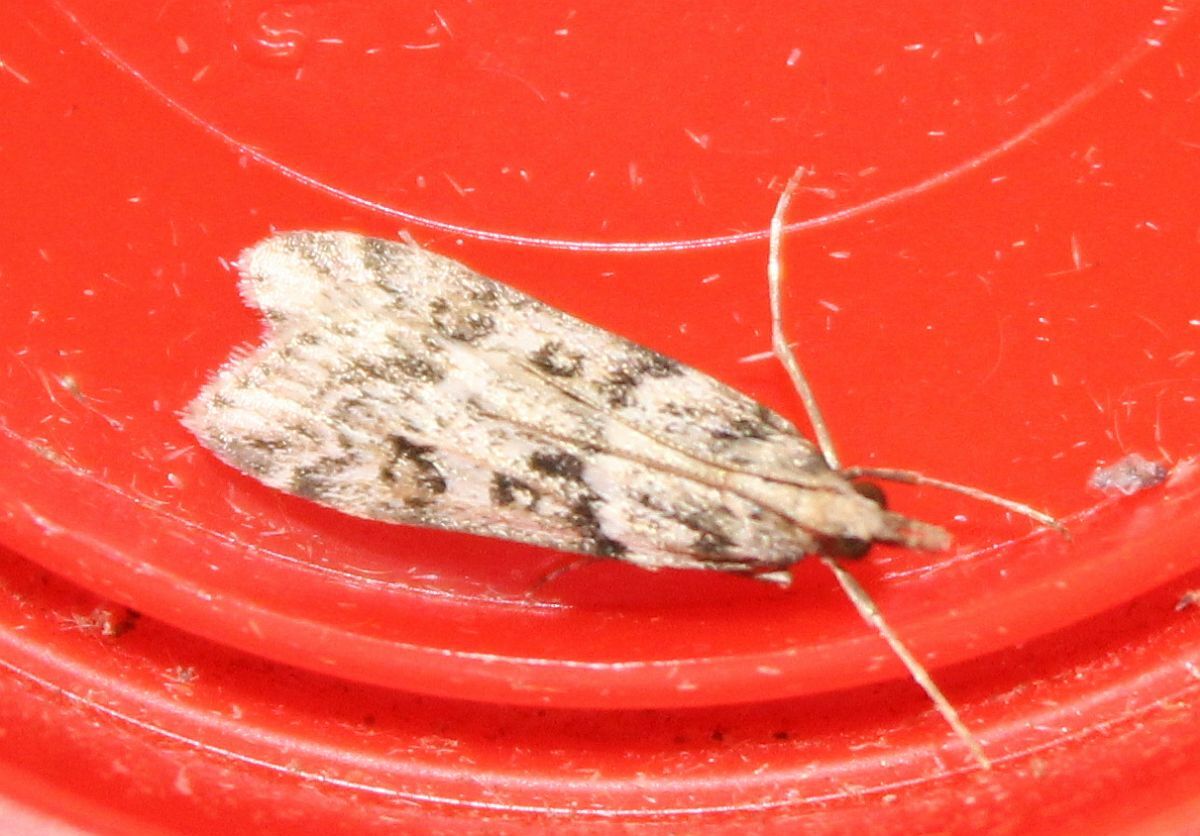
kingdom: Animalia
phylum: Arthropoda
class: Insecta
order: Lepidoptera
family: Crambidae
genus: Eudonia
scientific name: Eudonia angustea
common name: Narrow-winged grey
